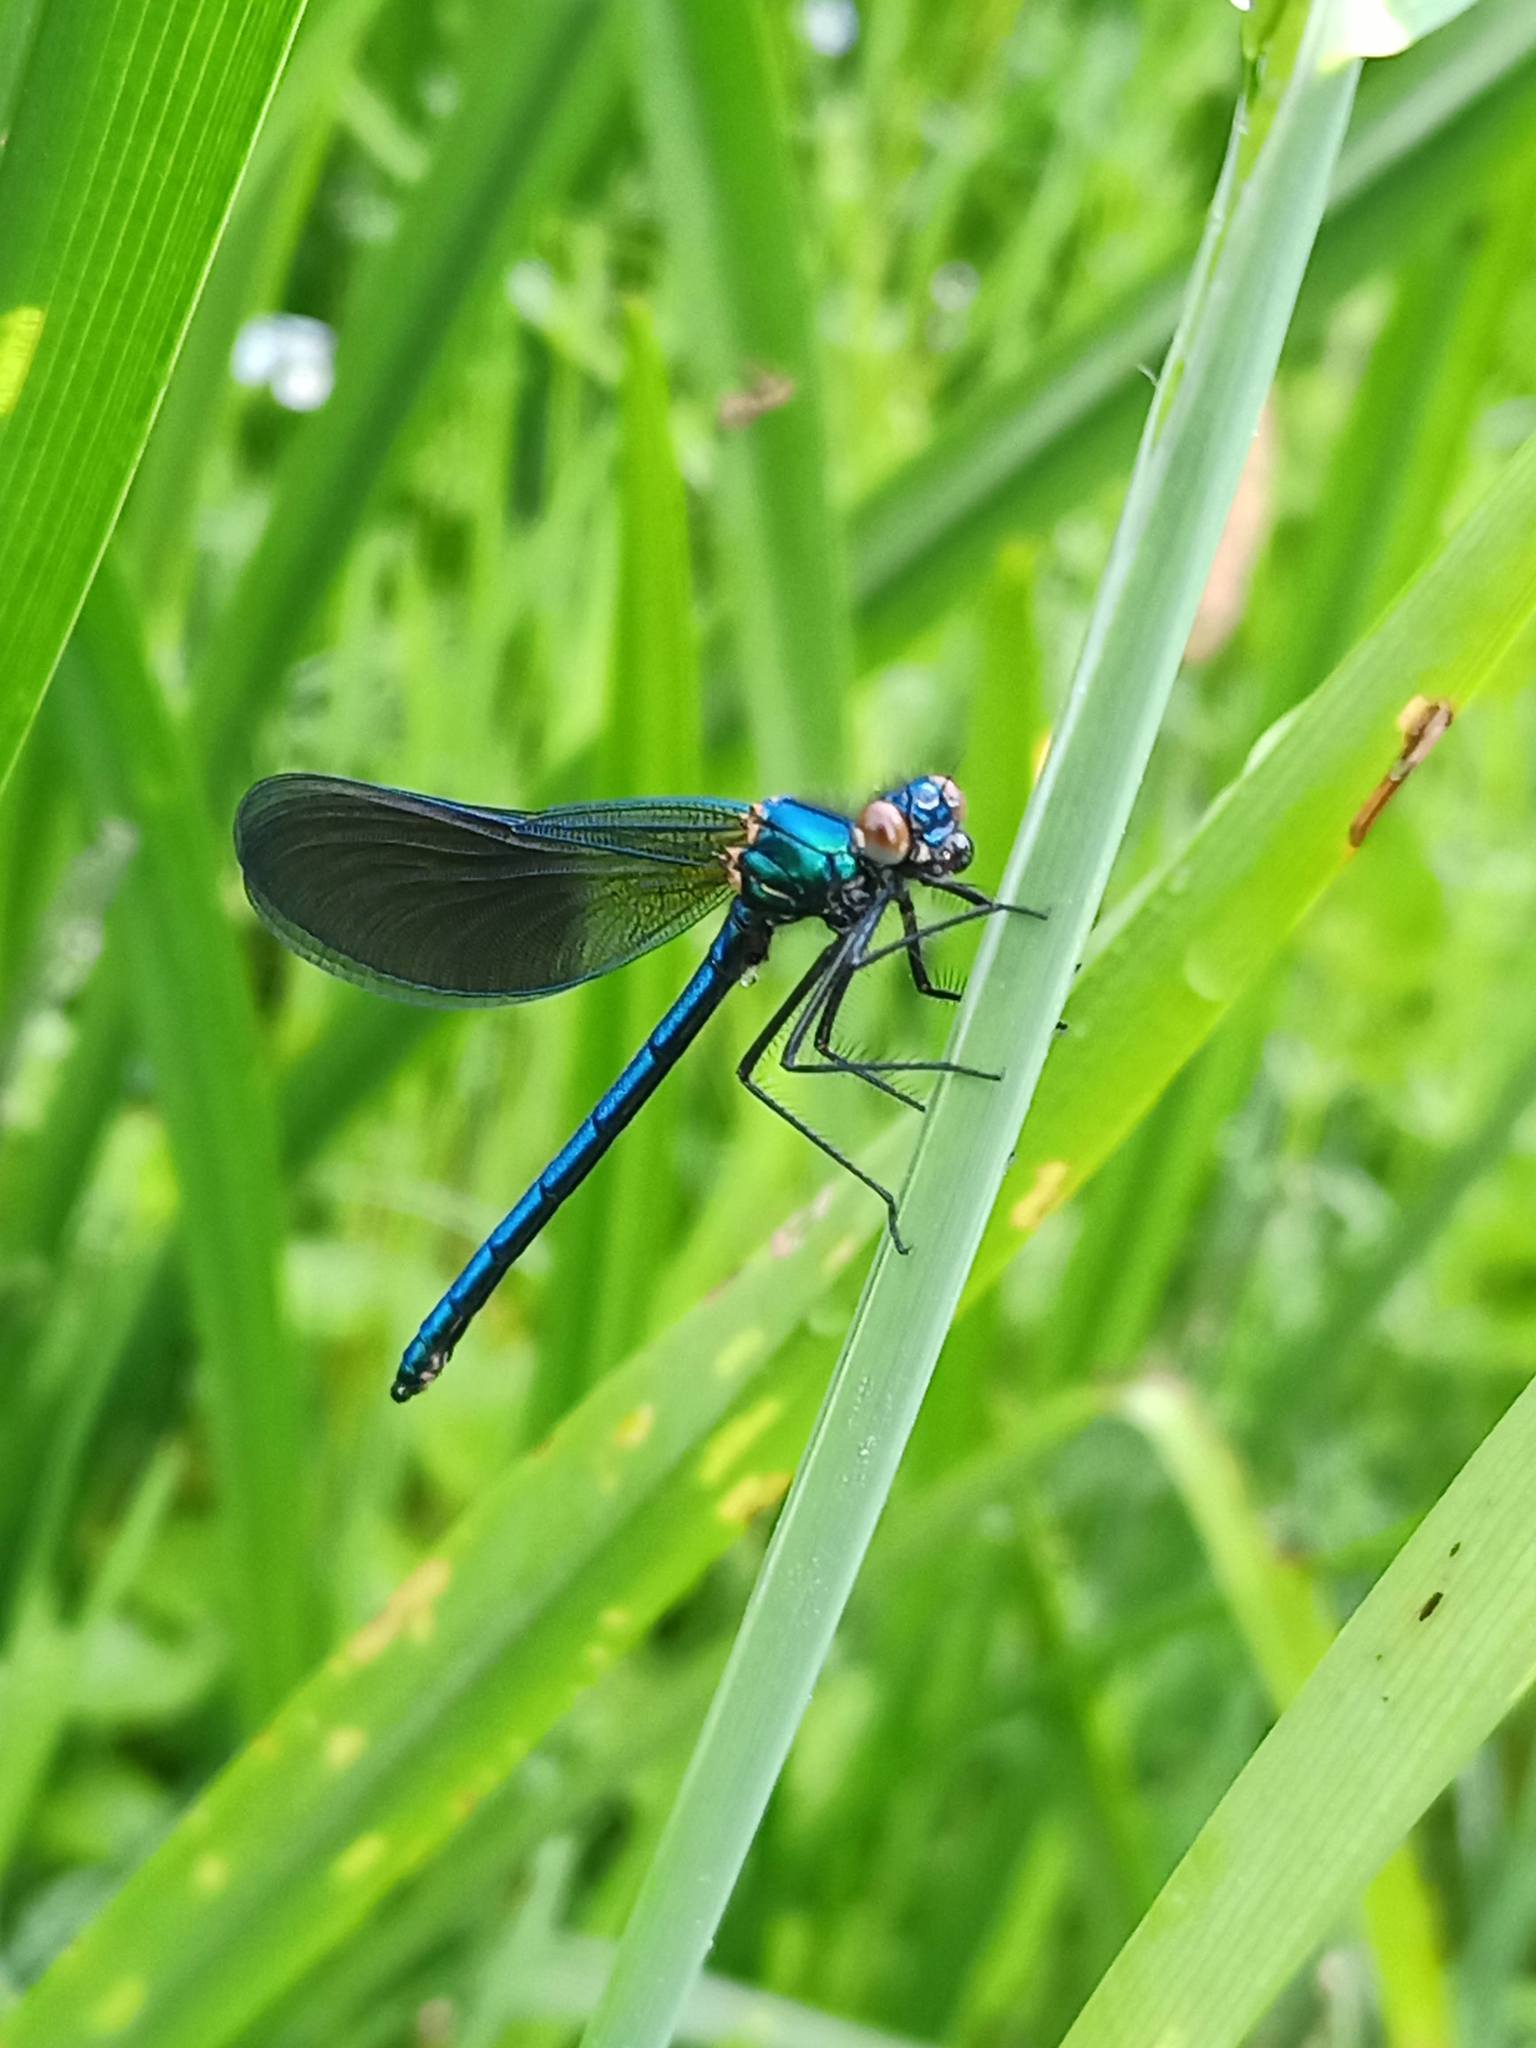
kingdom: Animalia
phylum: Arthropoda
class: Insecta
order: Odonata
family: Calopterygidae
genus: Calopteryx
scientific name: Calopteryx xanthostoma
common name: Western demoiselle
